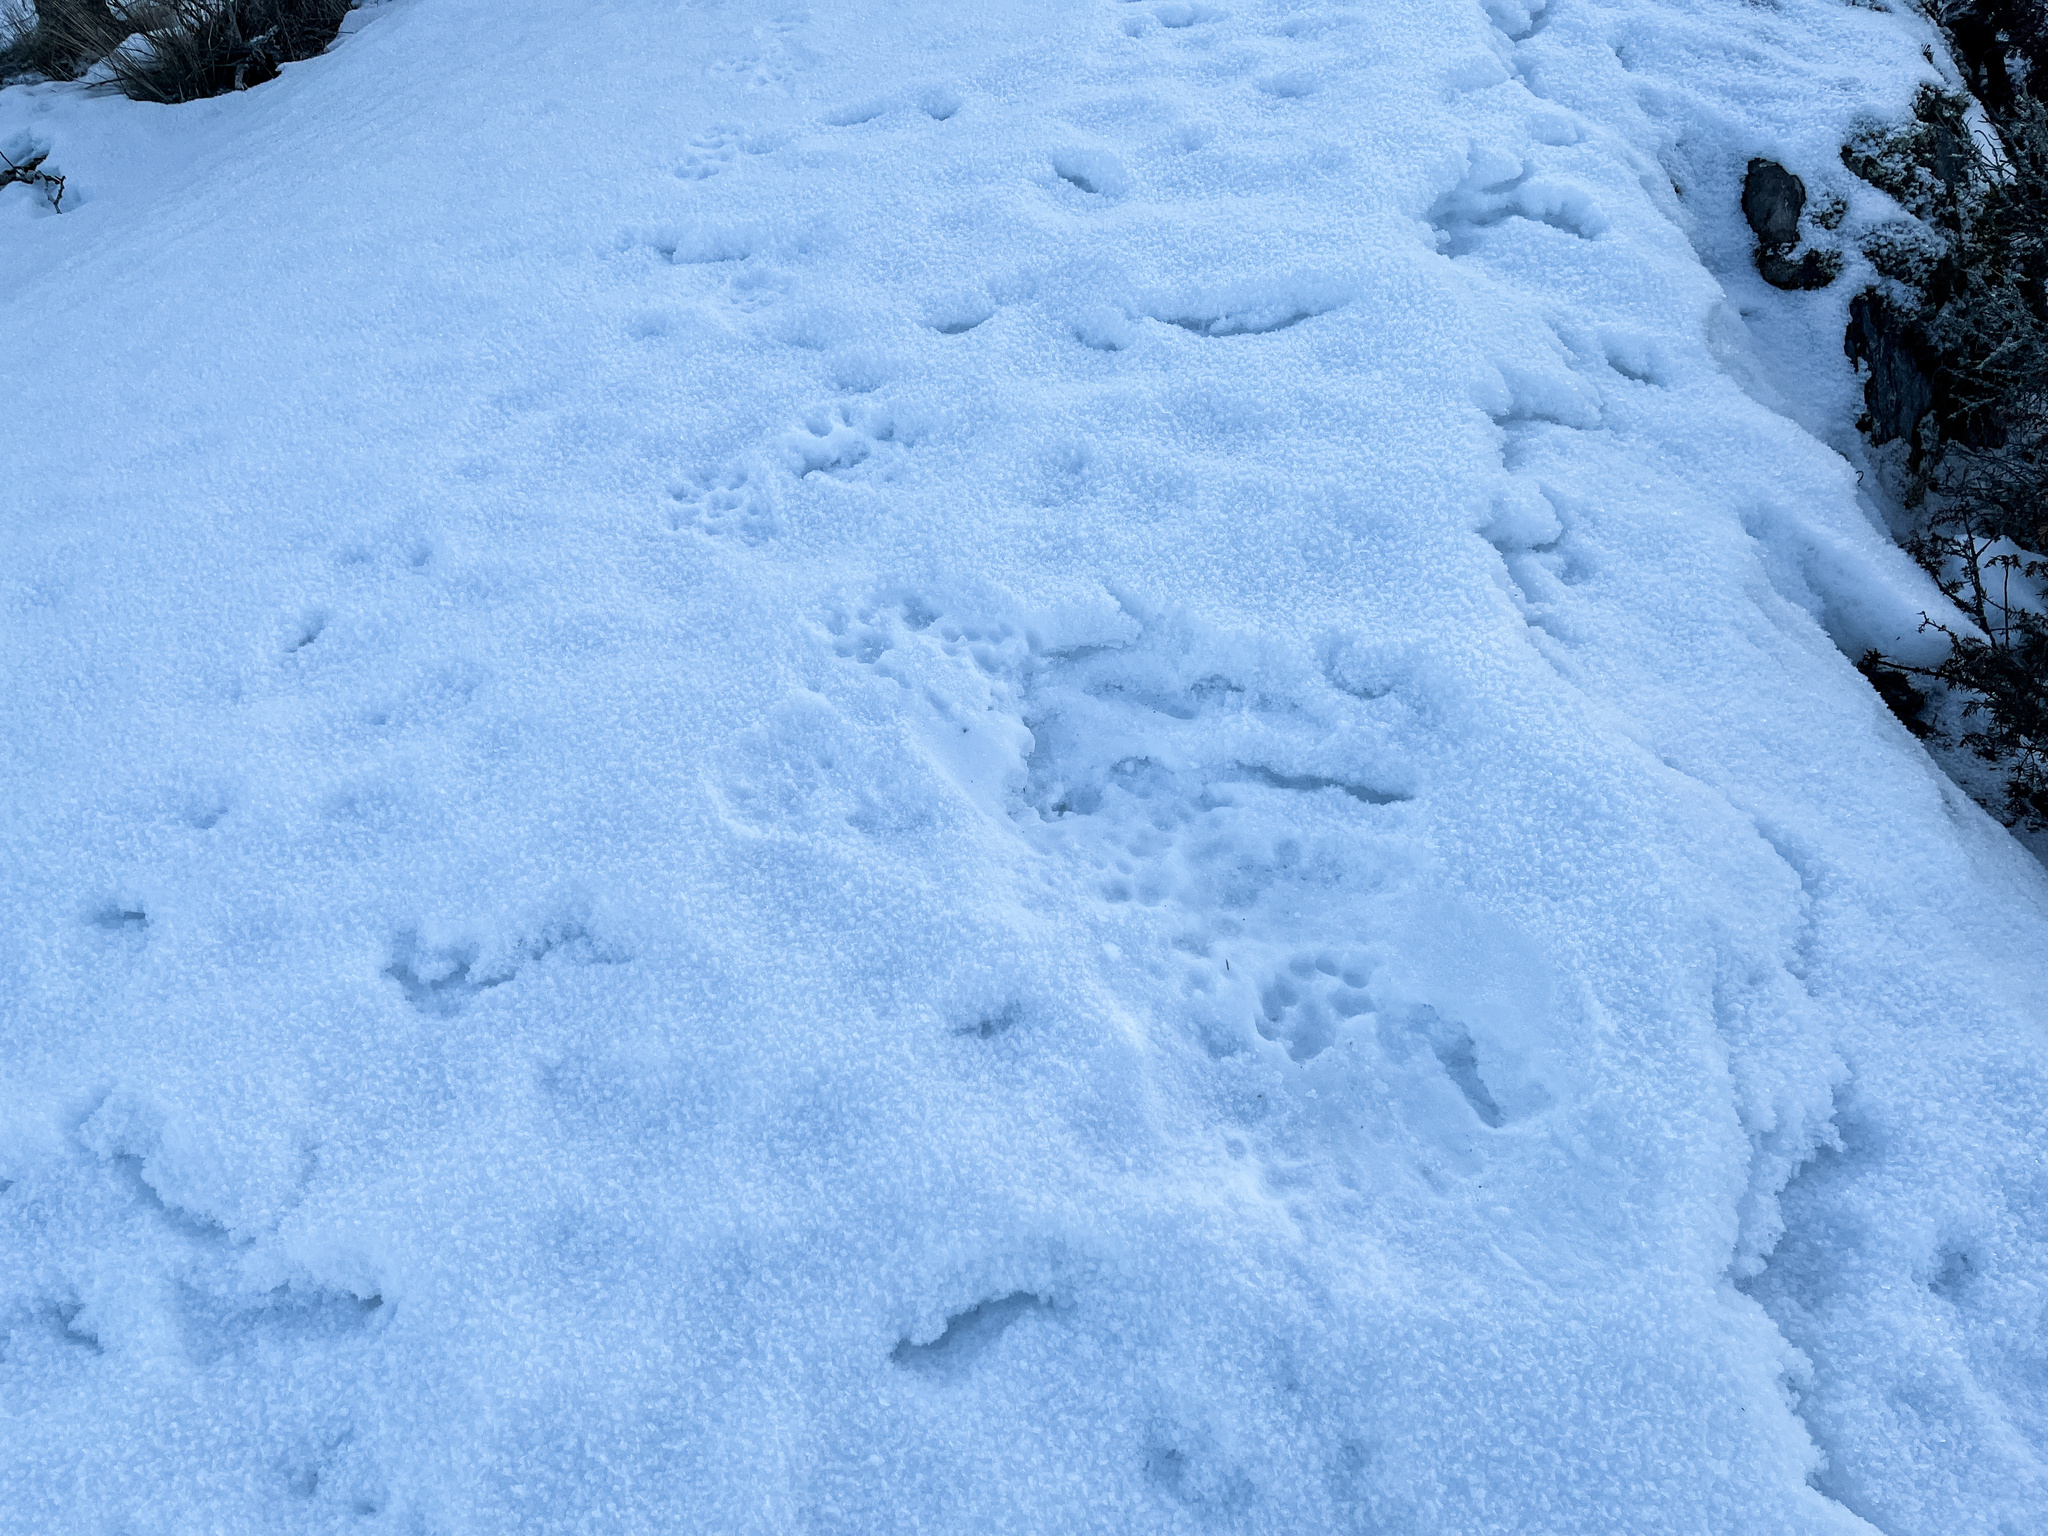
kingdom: Animalia
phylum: Chordata
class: Mammalia
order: Carnivora
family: Felidae
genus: Lynx
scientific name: Lynx lynx
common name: Eurasian lynx
